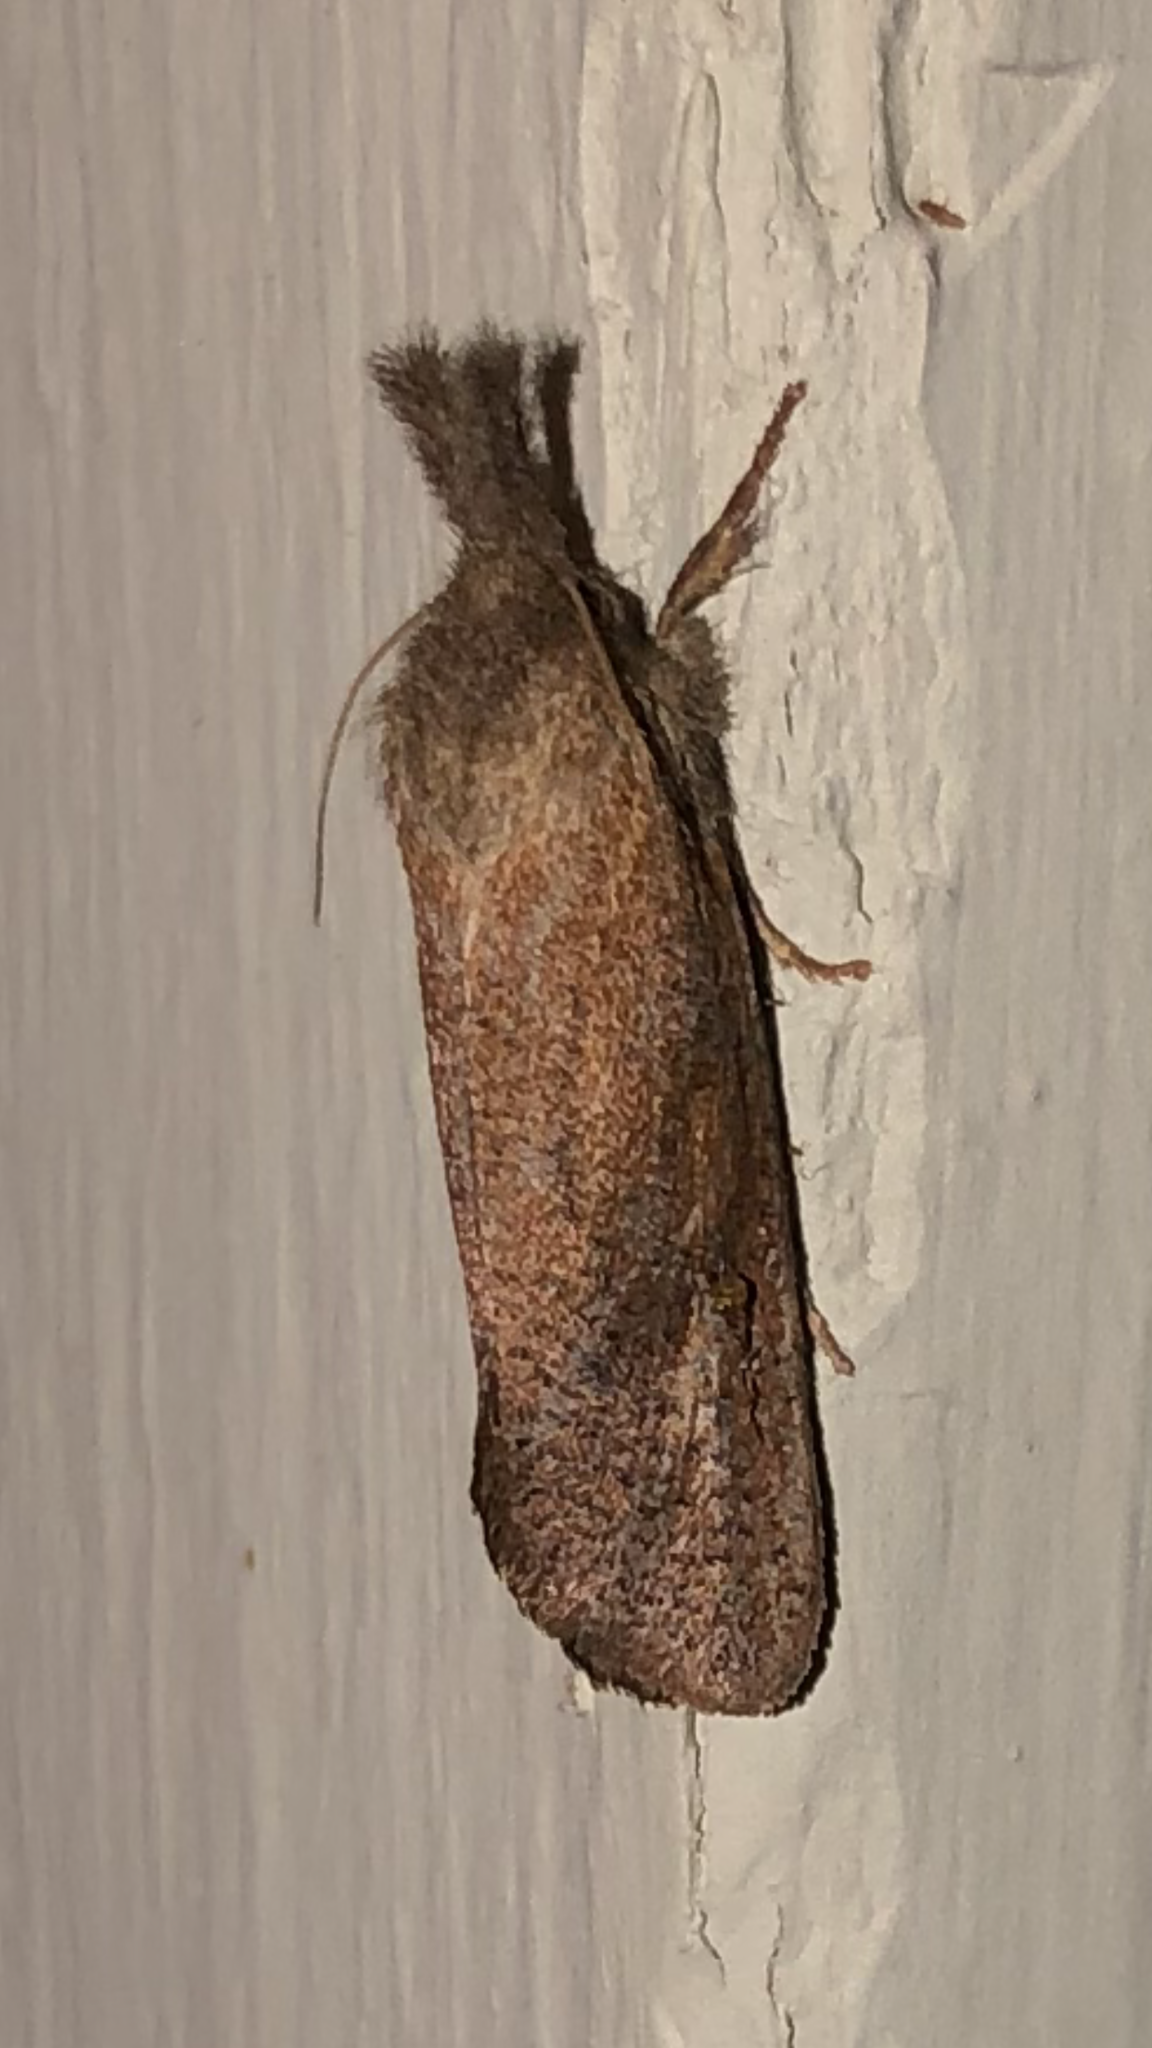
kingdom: Animalia
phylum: Arthropoda
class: Insecta
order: Lepidoptera
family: Tineidae
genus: Acrolophus
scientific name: Acrolophus plumifrontella
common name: Eastern grass tubeworm moth
